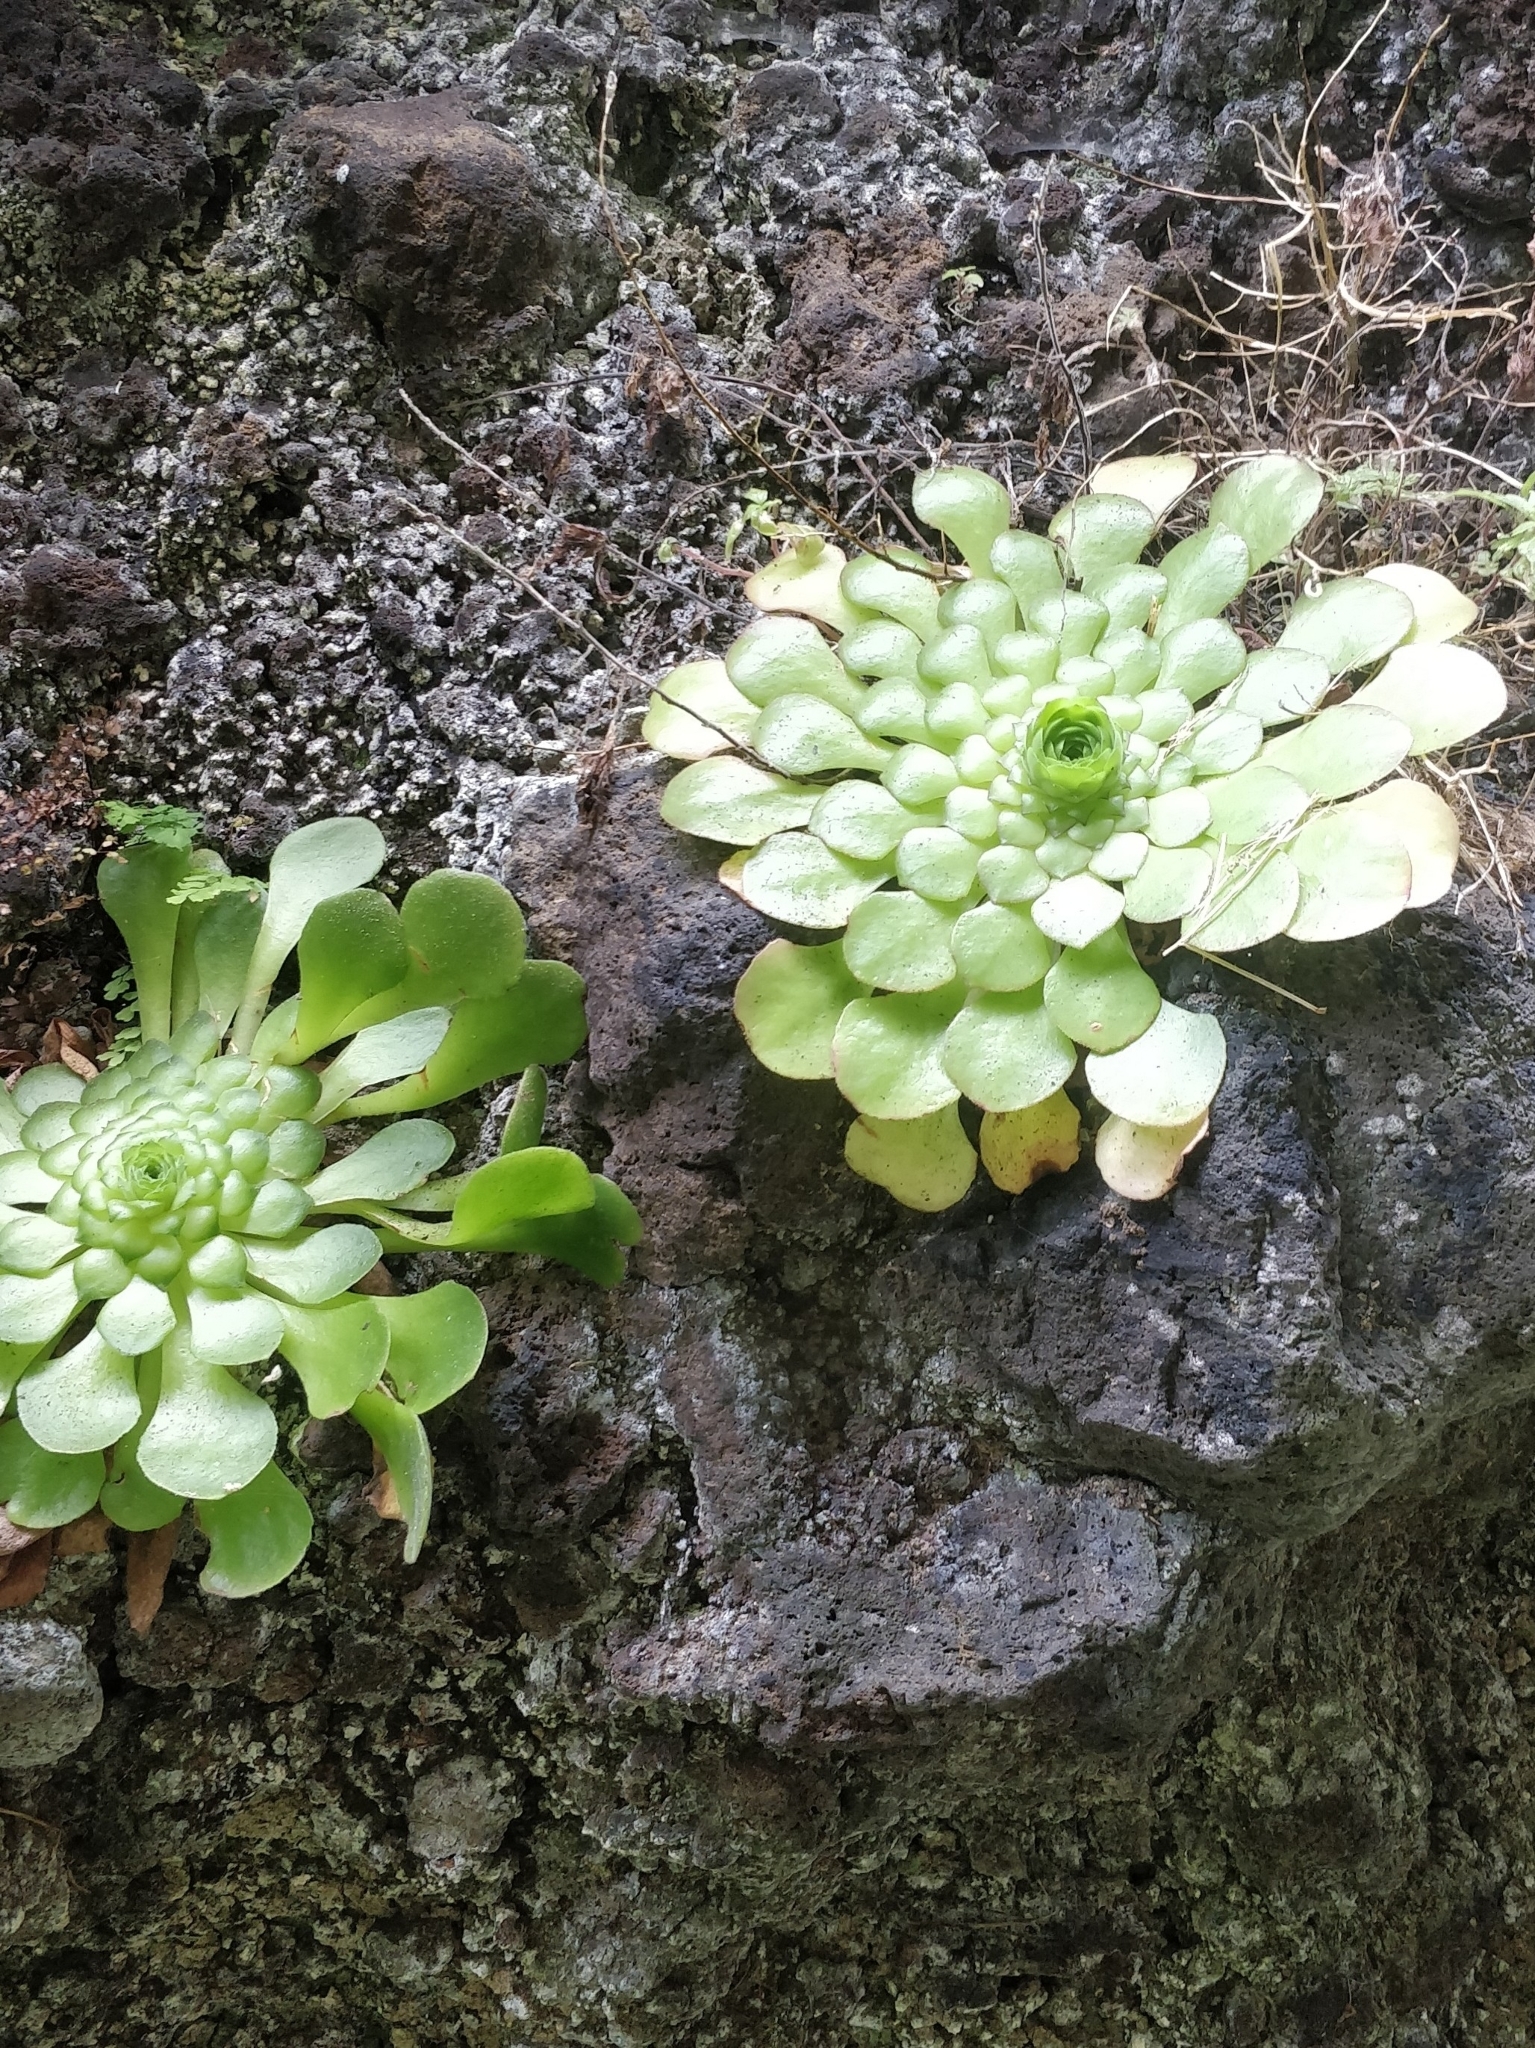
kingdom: Plantae
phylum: Tracheophyta
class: Magnoliopsida
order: Saxifragales
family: Crassulaceae
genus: Aeonium
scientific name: Aeonium glandulosum
